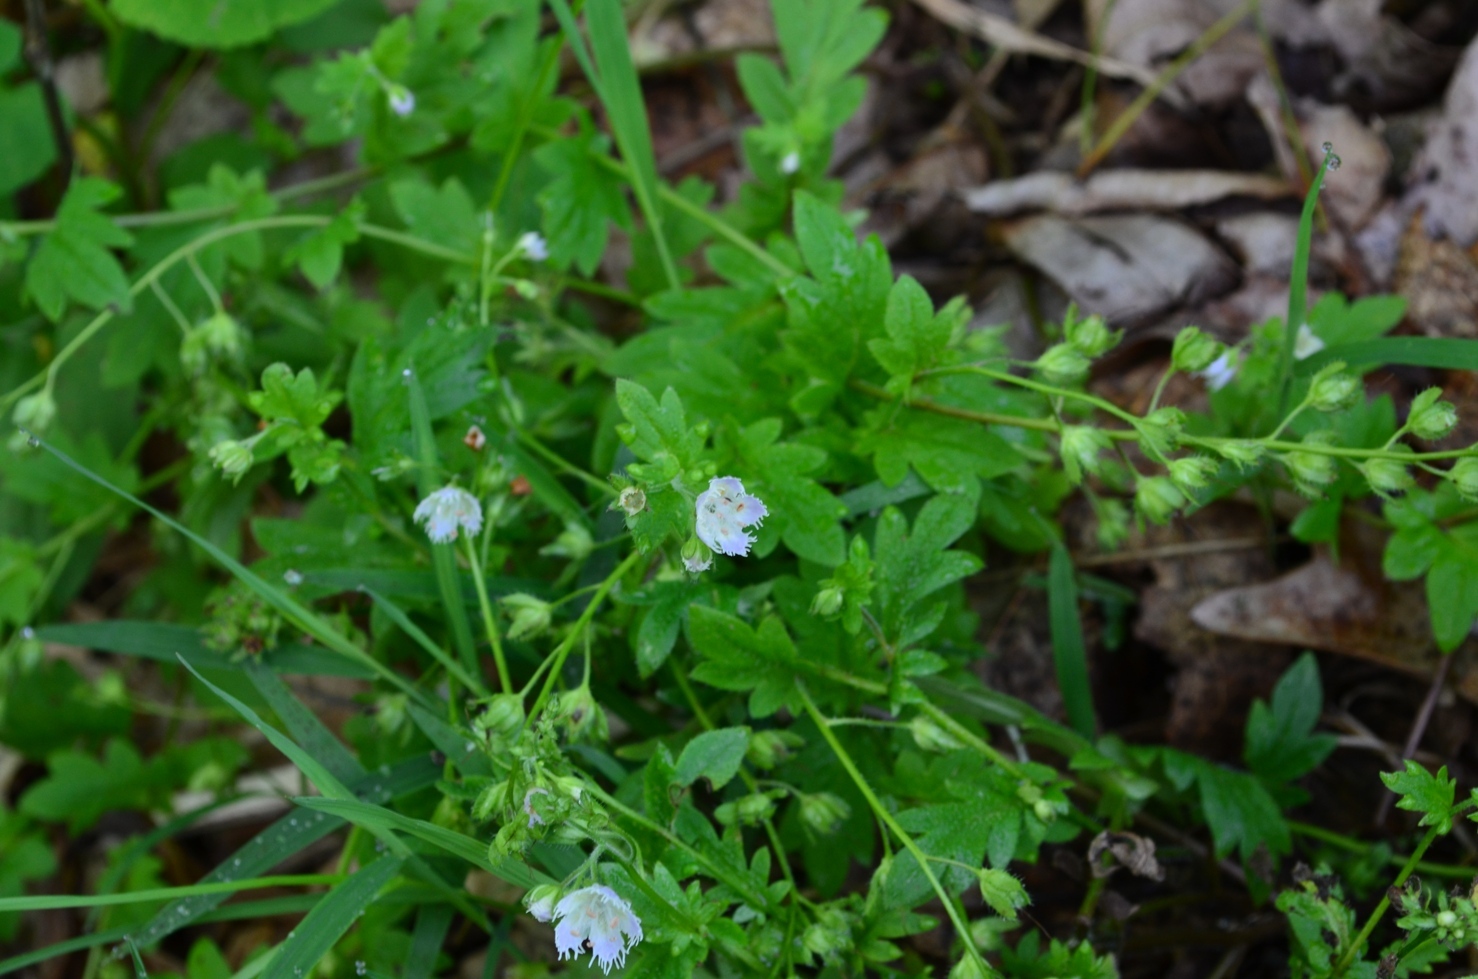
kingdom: Plantae
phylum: Tracheophyta
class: Magnoliopsida
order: Boraginales
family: Hydrophyllaceae
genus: Phacelia
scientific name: Phacelia fimbriata
